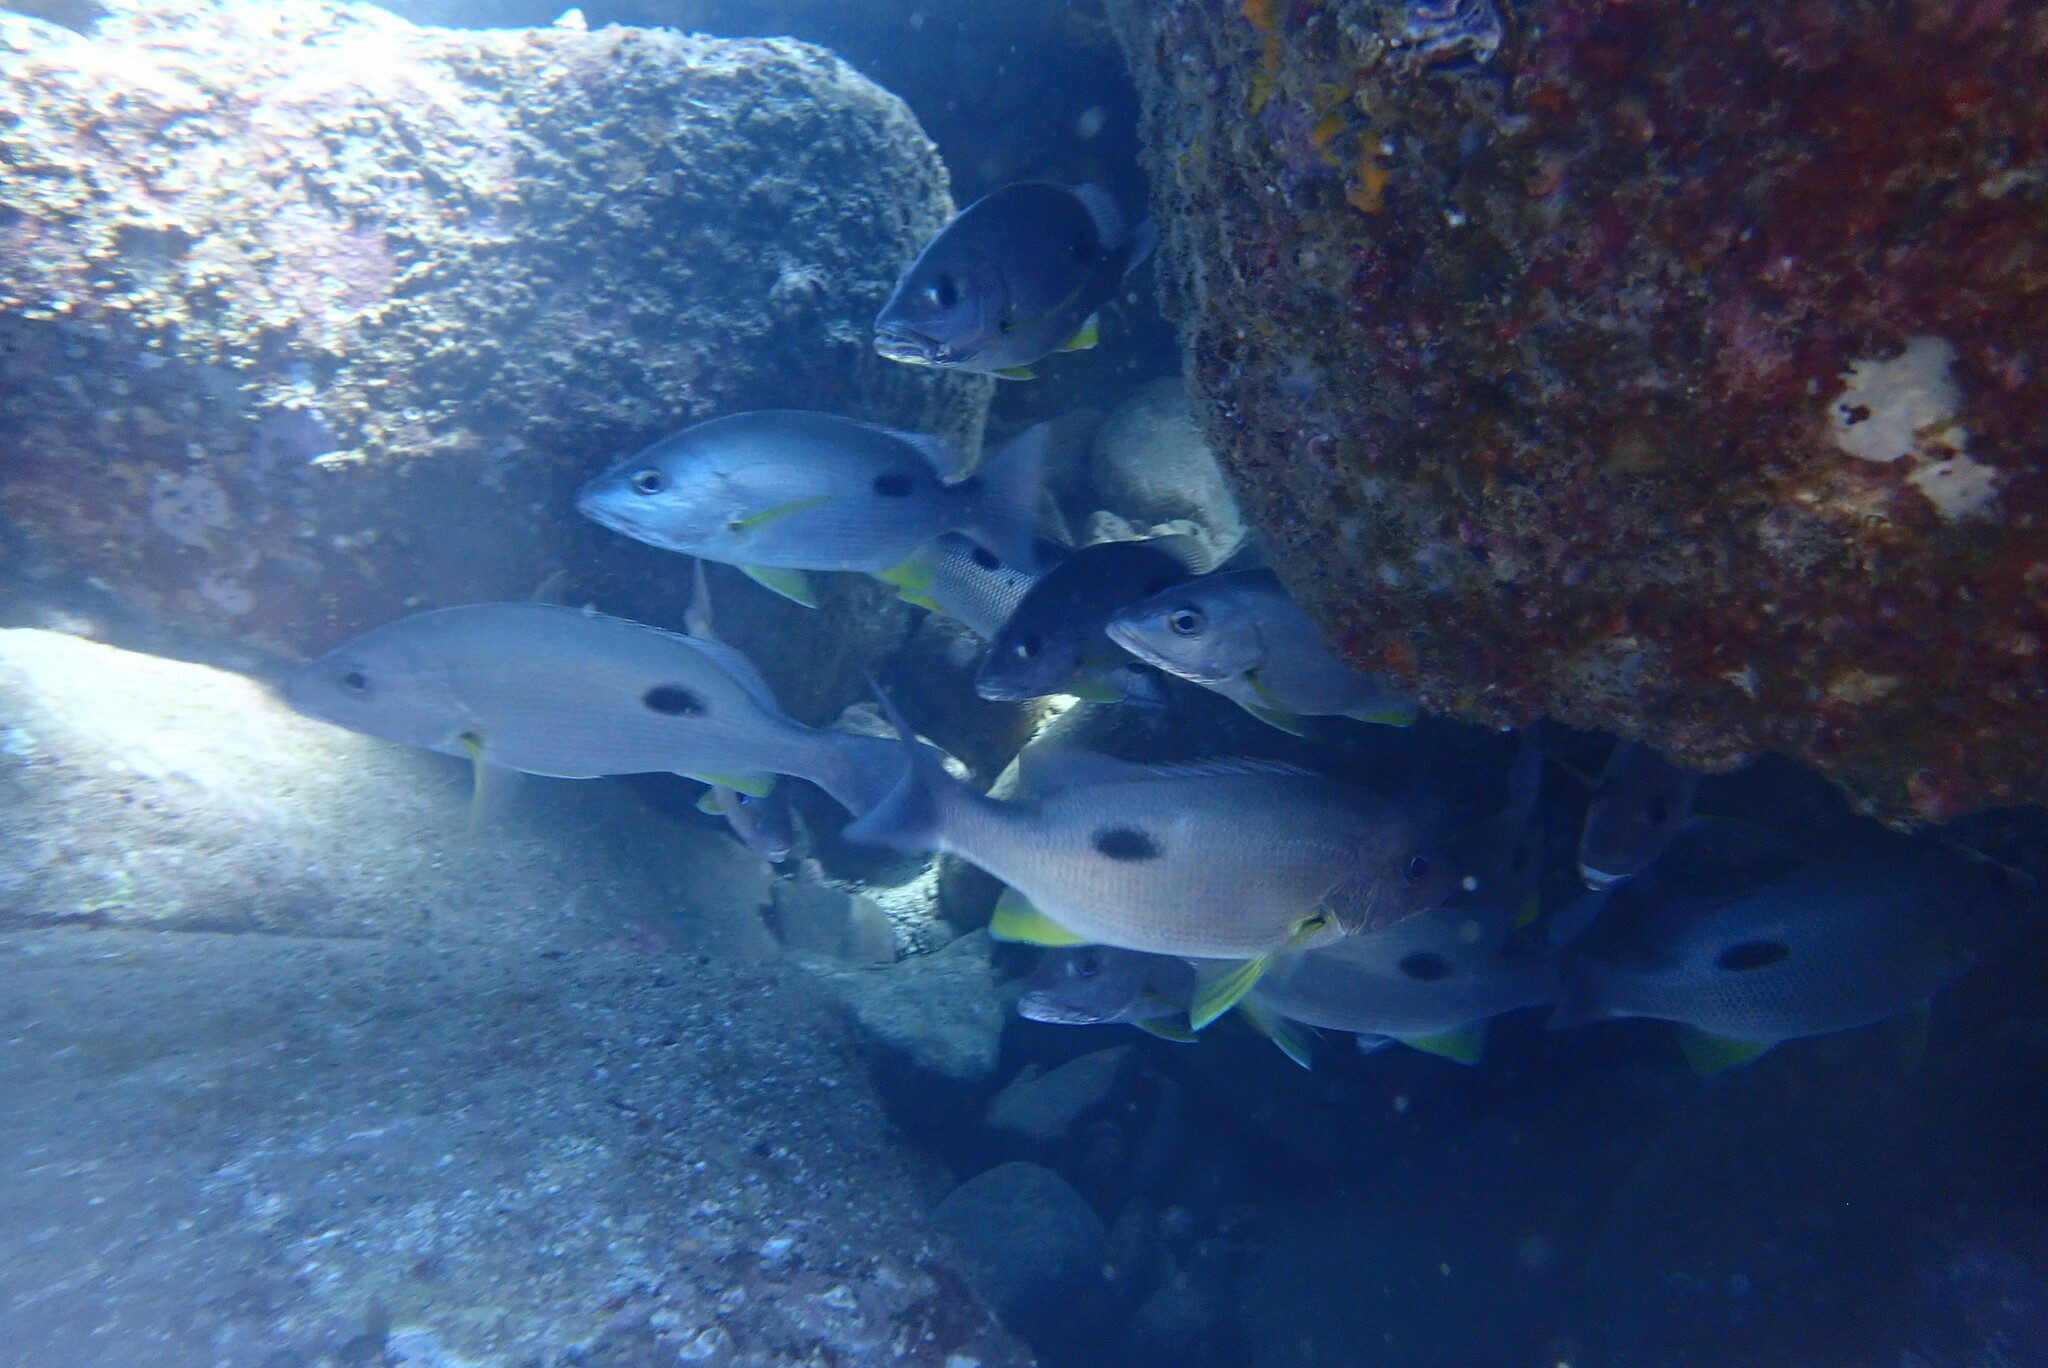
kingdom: Animalia
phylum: Chordata
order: Perciformes
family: Lutjanidae
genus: Lutjanus
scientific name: Lutjanus russellii
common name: Russell's snapper
